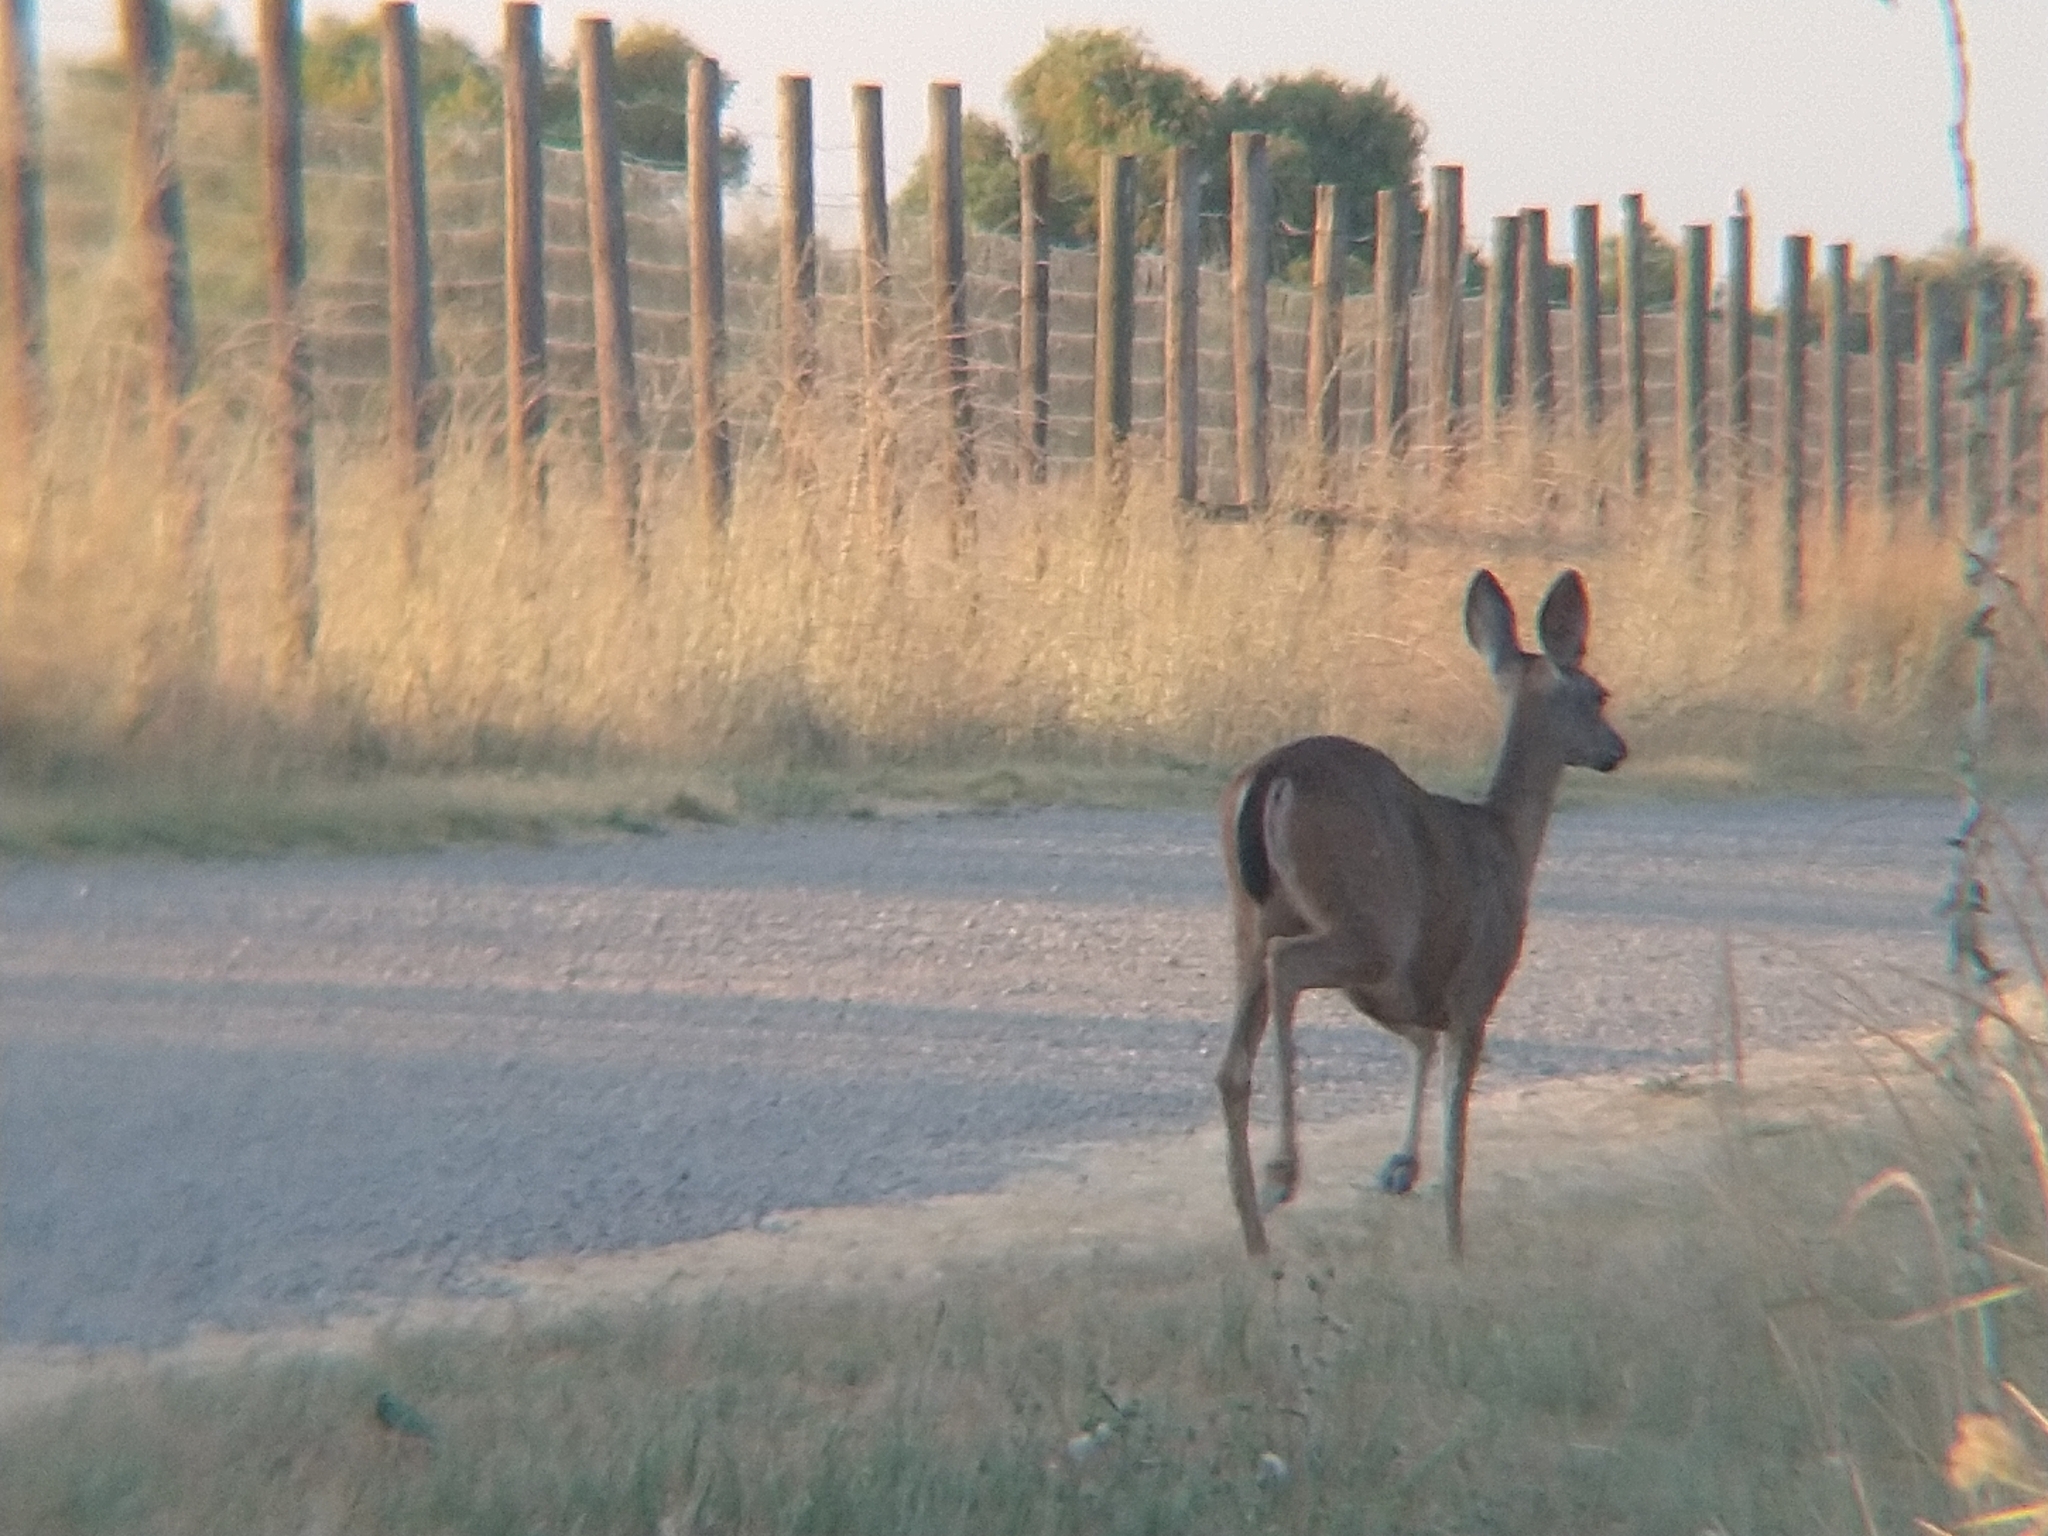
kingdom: Animalia
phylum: Chordata
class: Mammalia
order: Artiodactyla
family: Cervidae
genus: Odocoileus
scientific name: Odocoileus hemionus
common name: Mule deer
